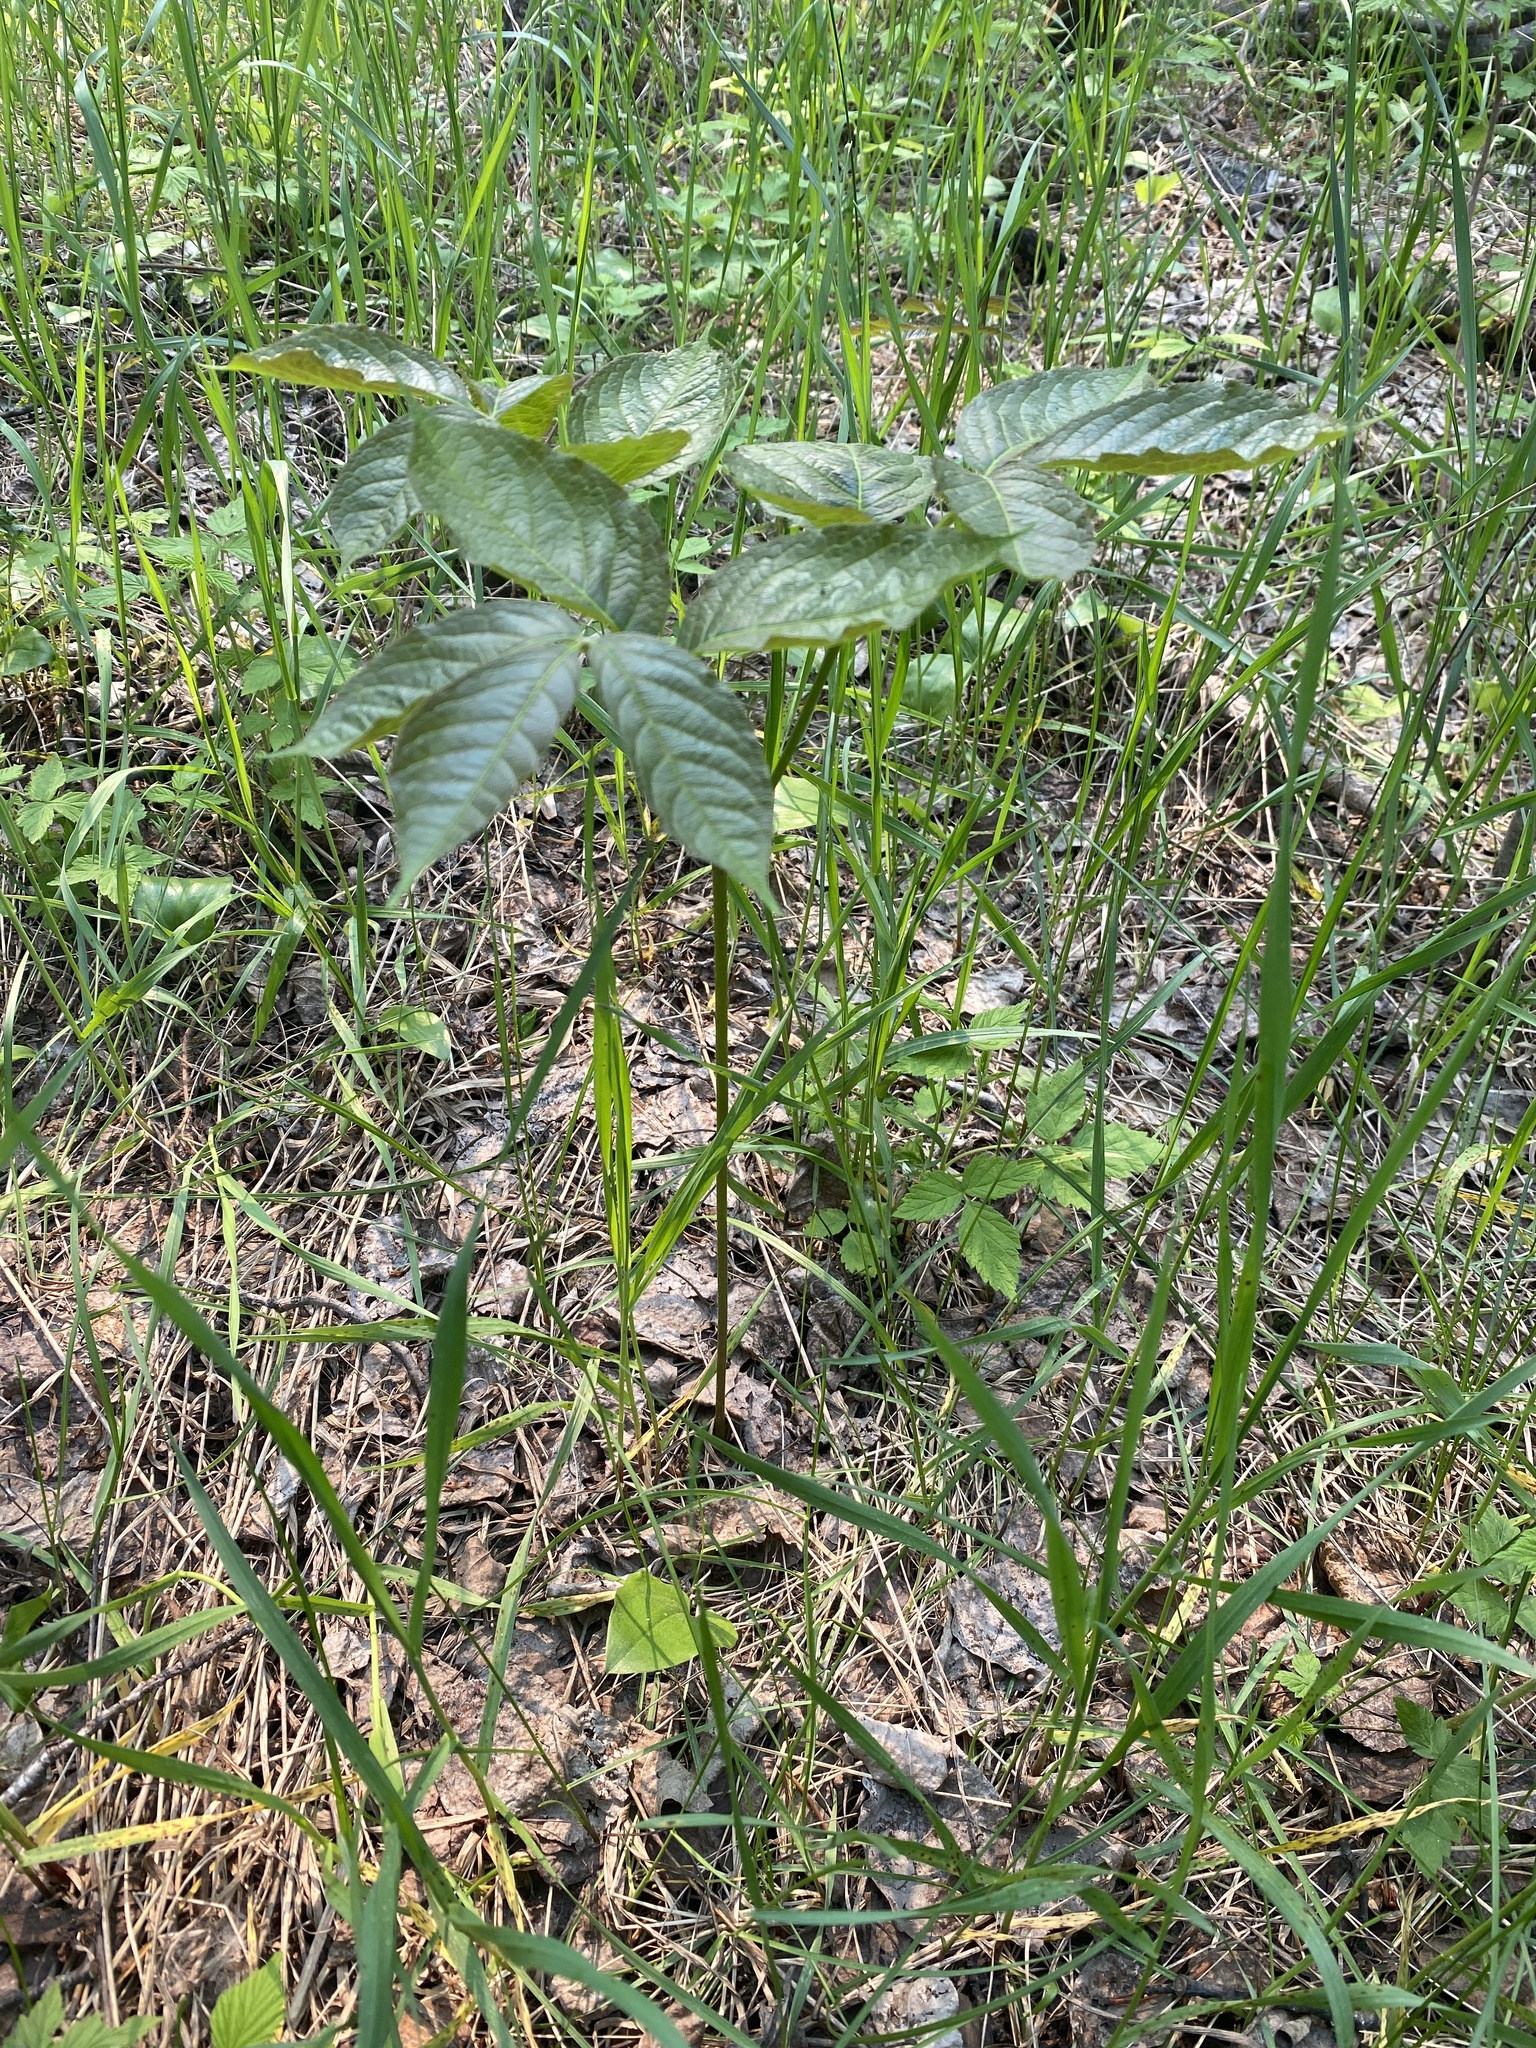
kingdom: Plantae
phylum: Tracheophyta
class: Magnoliopsida
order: Apiales
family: Araliaceae
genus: Aralia
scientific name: Aralia nudicaulis
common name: Wild sarsaparilla
